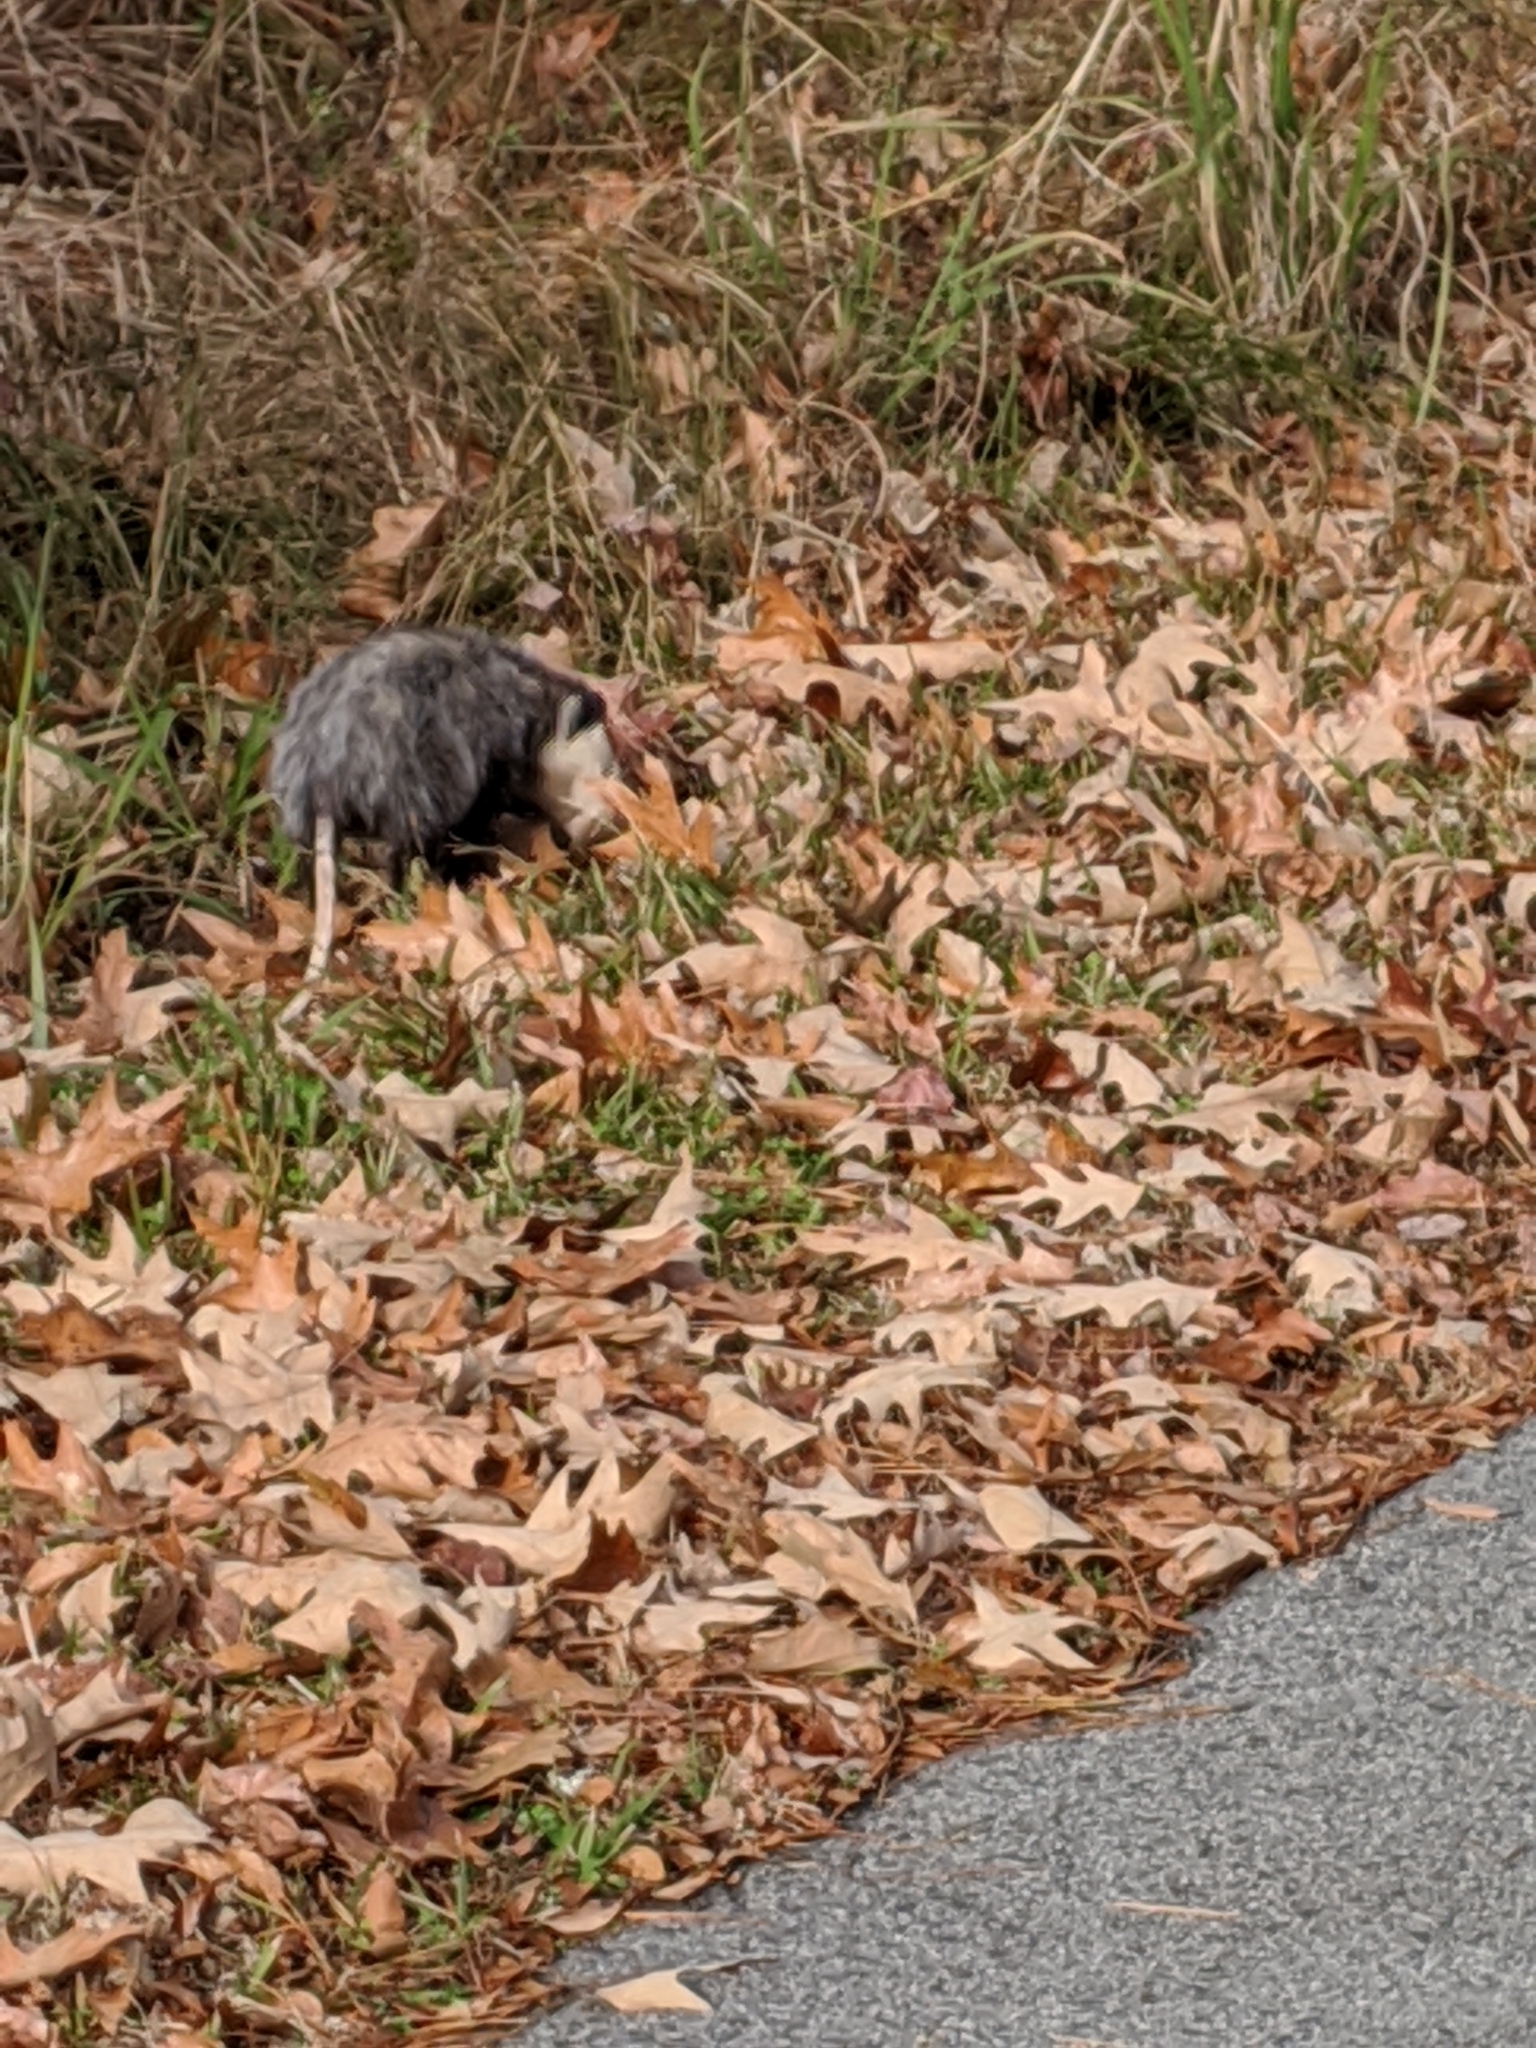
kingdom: Animalia
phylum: Chordata
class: Mammalia
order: Didelphimorphia
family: Didelphidae
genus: Didelphis
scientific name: Didelphis virginiana
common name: Virginia opossum
